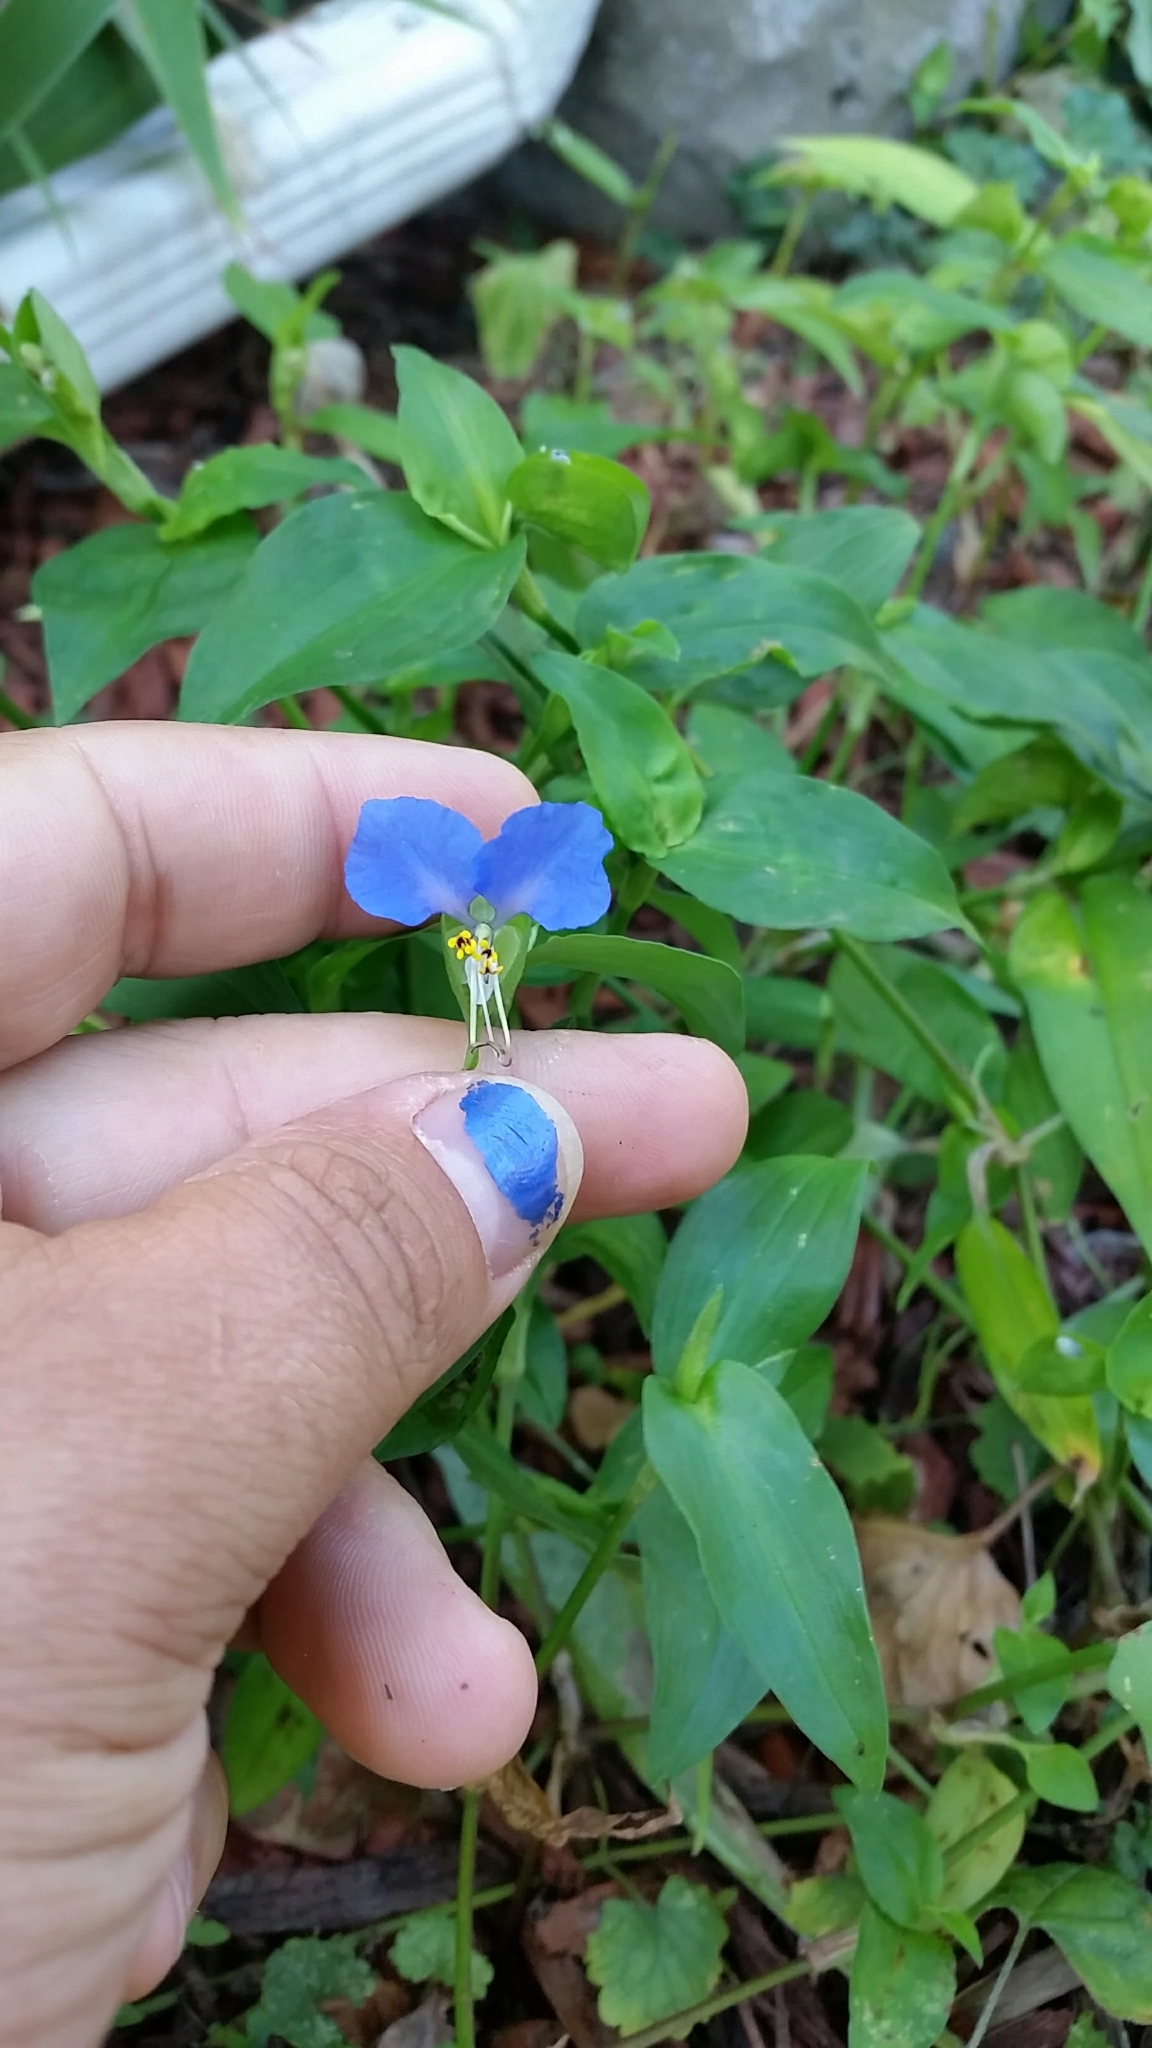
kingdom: Plantae
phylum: Tracheophyta
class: Liliopsida
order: Commelinales
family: Commelinaceae
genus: Commelina
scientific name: Commelina communis
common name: Asiatic dayflower
